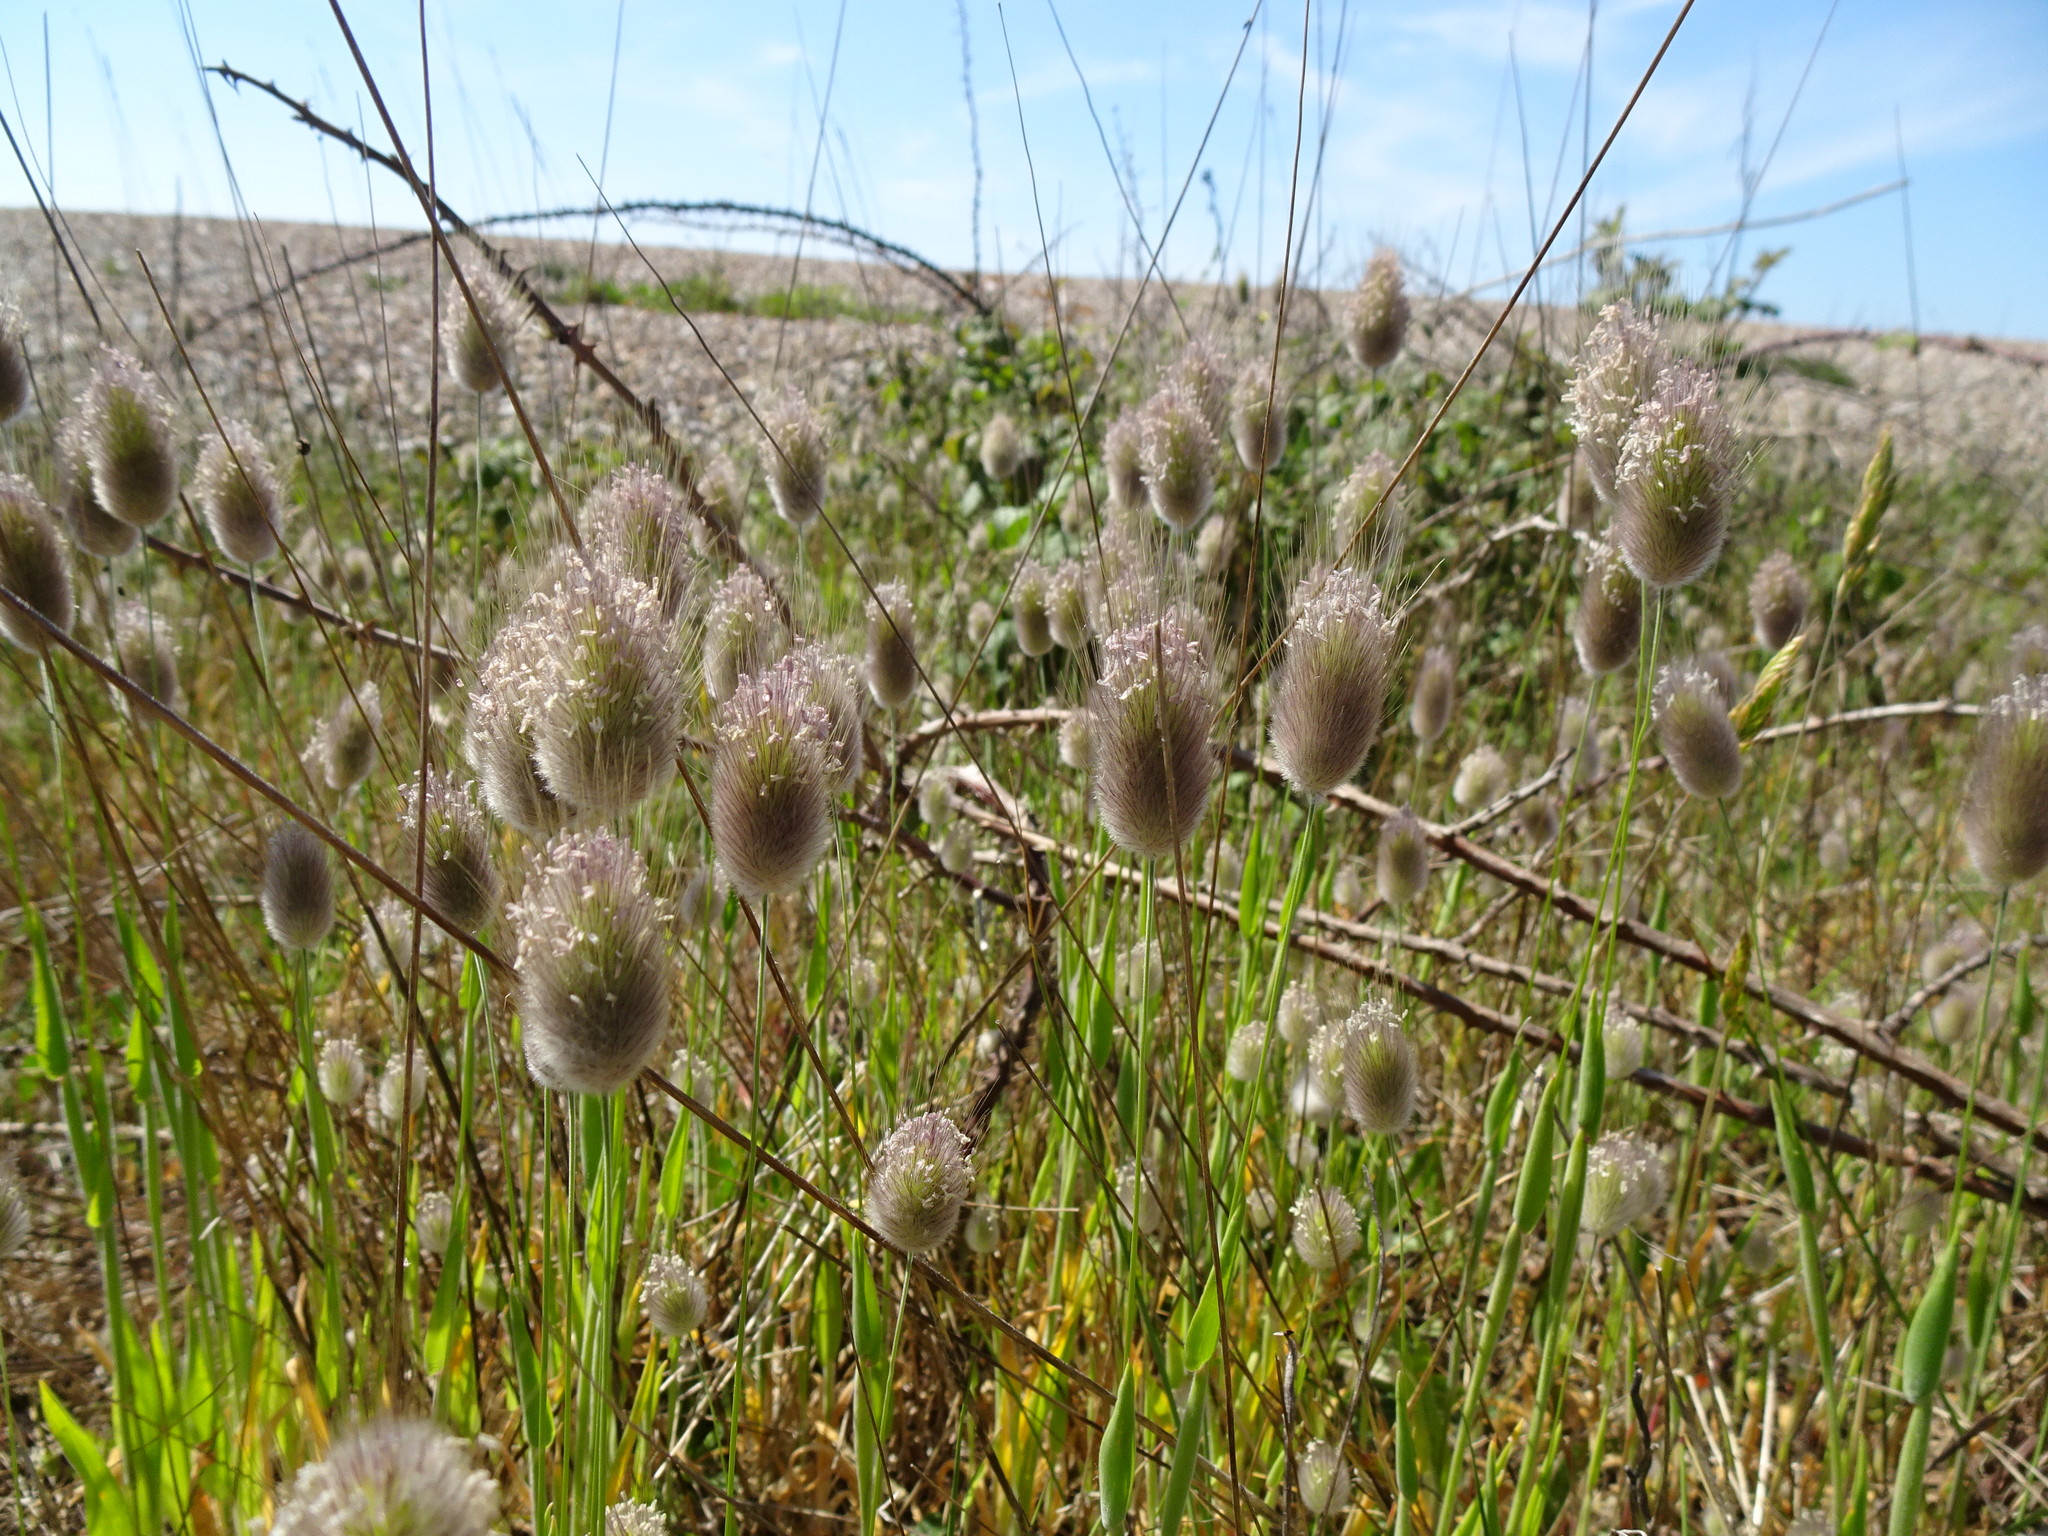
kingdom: Plantae
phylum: Tracheophyta
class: Liliopsida
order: Poales
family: Poaceae
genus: Lagurus
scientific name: Lagurus ovatus
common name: Hare's-tail
